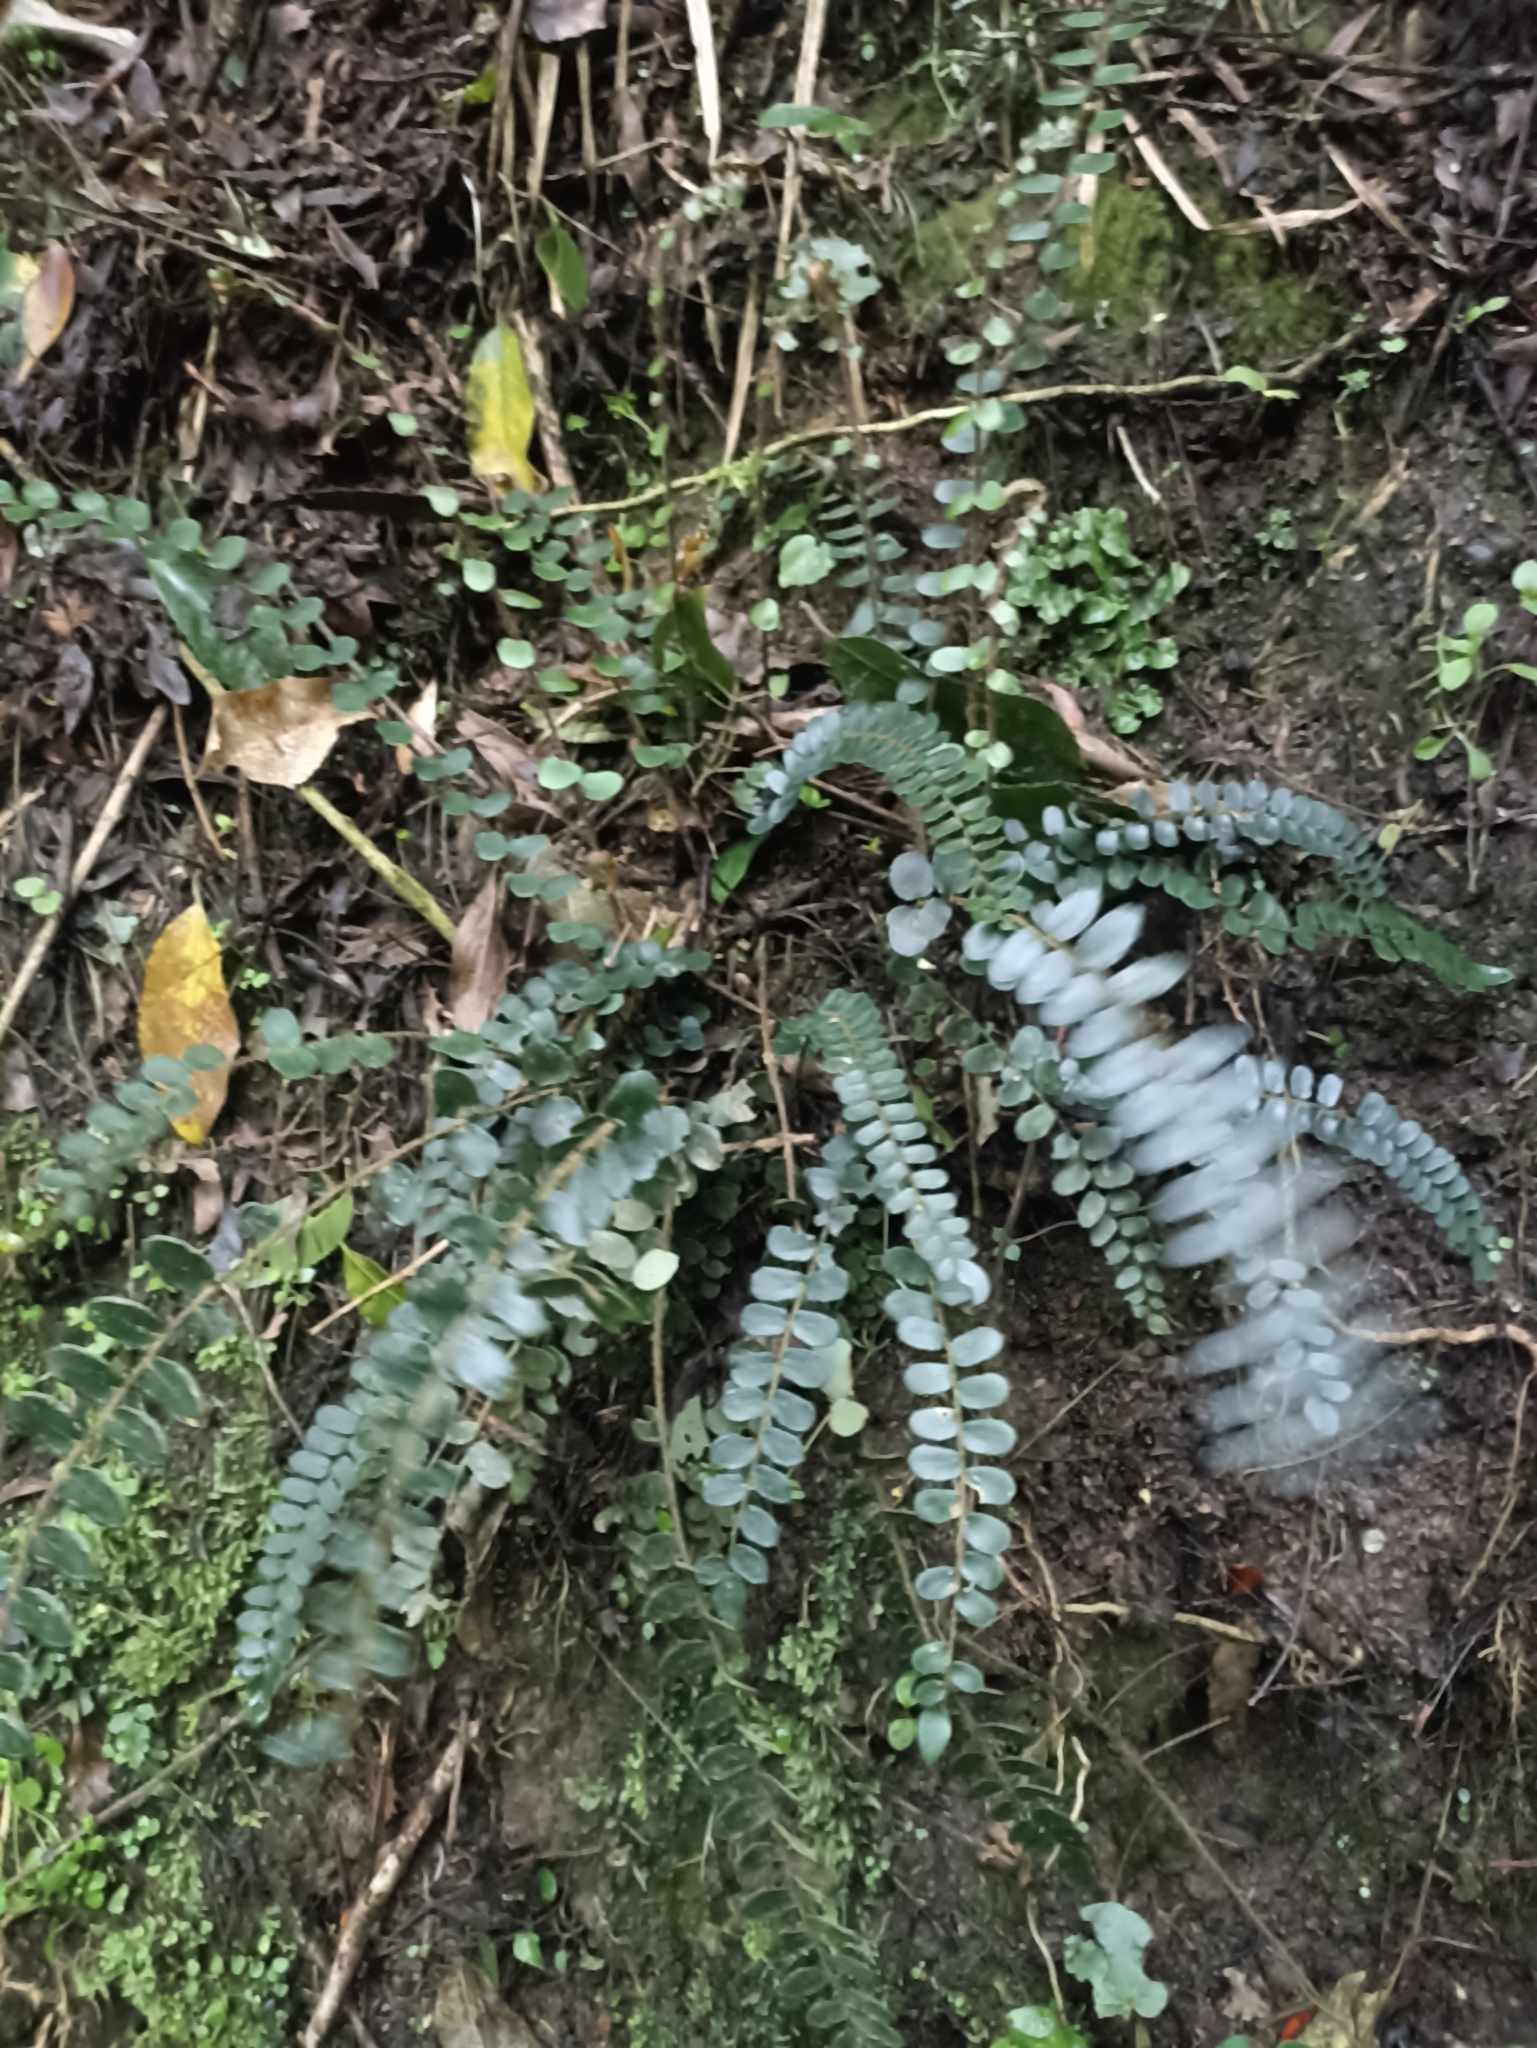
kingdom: Plantae
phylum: Tracheophyta
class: Polypodiopsida
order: Polypodiales
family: Pteridaceae
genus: Pellaea
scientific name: Pellaea rotundifolia
